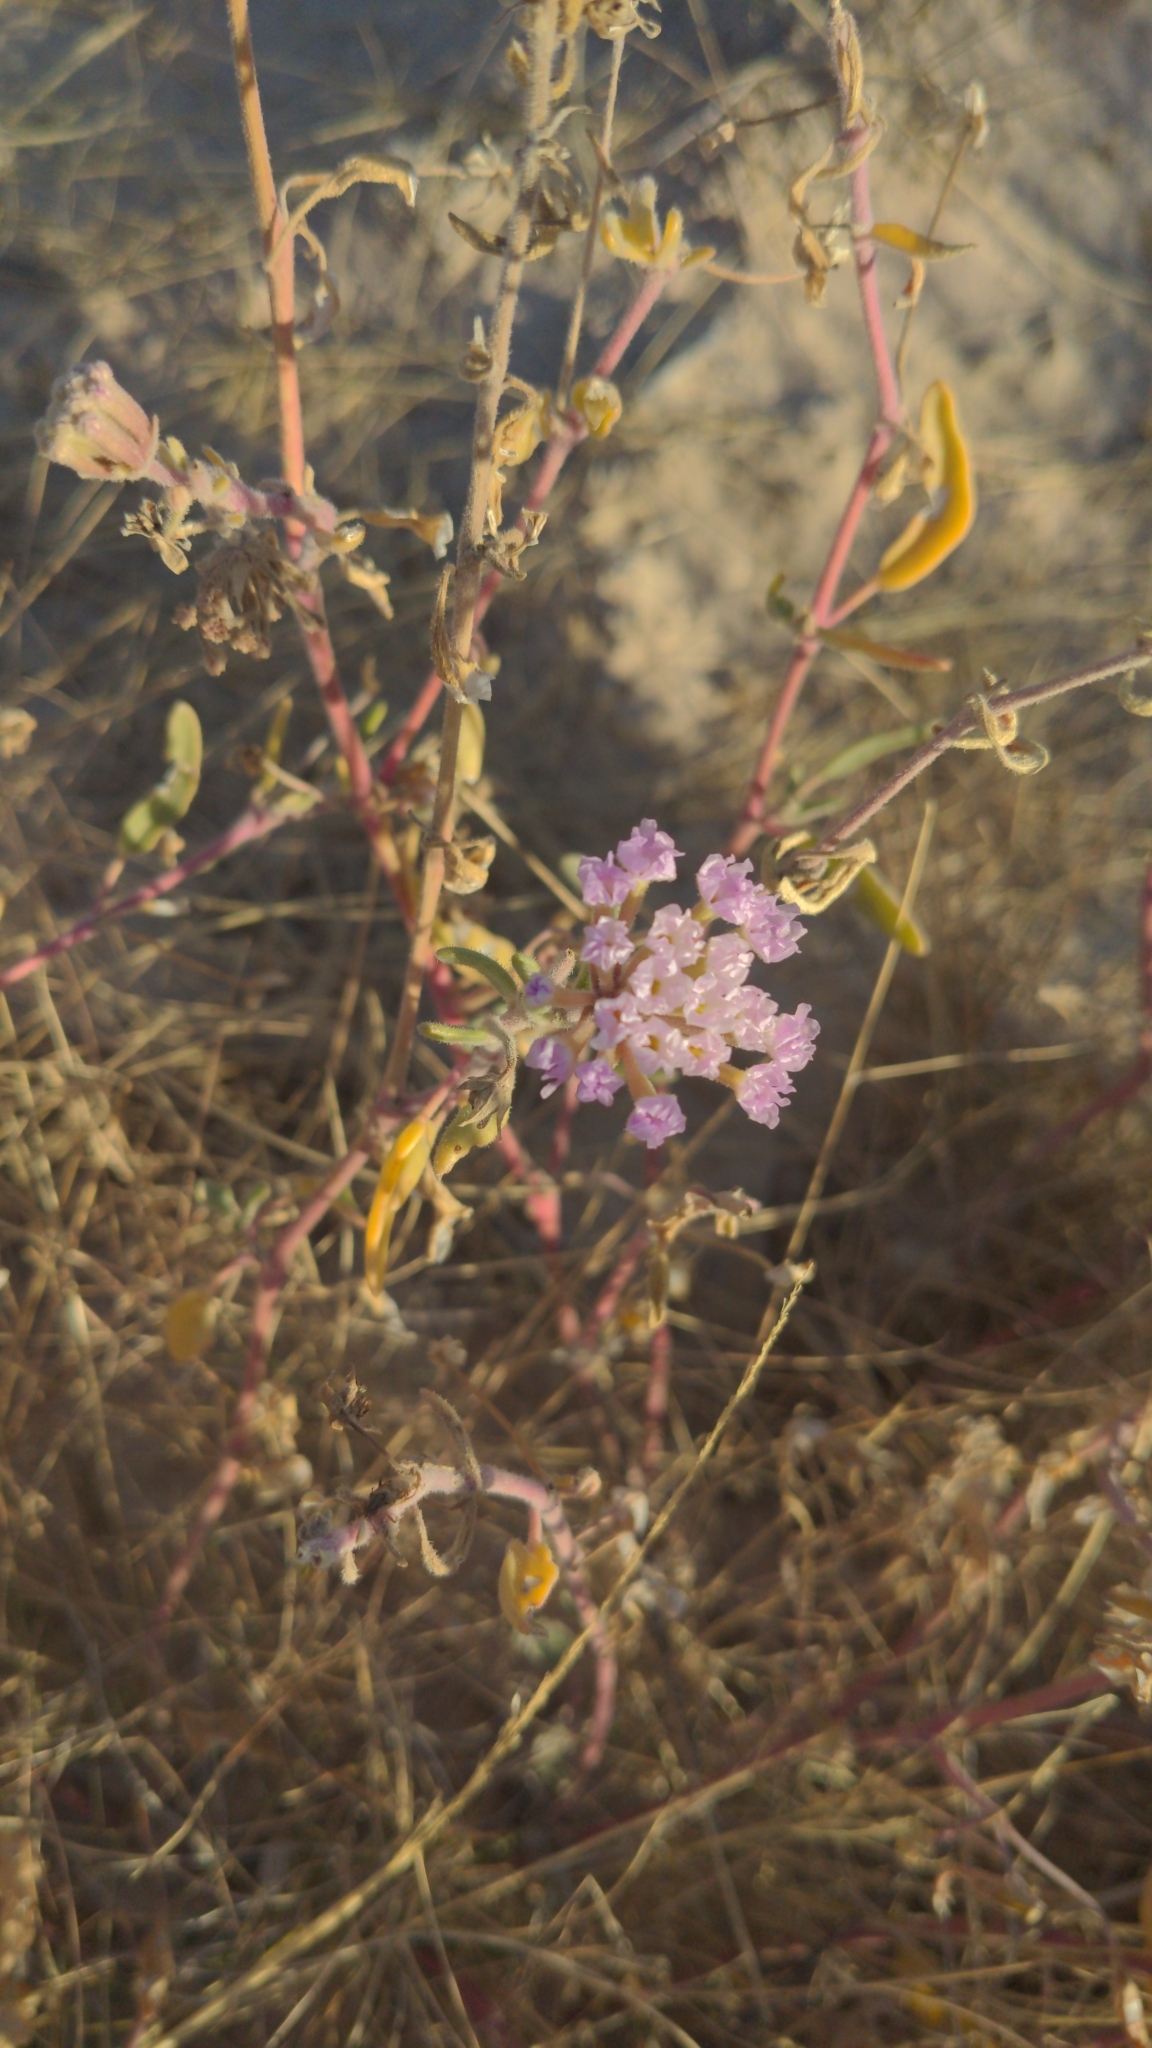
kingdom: Plantae
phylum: Tracheophyta
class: Magnoliopsida
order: Caryophyllales
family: Nyctaginaceae
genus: Abronia
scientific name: Abronia angustifolia
